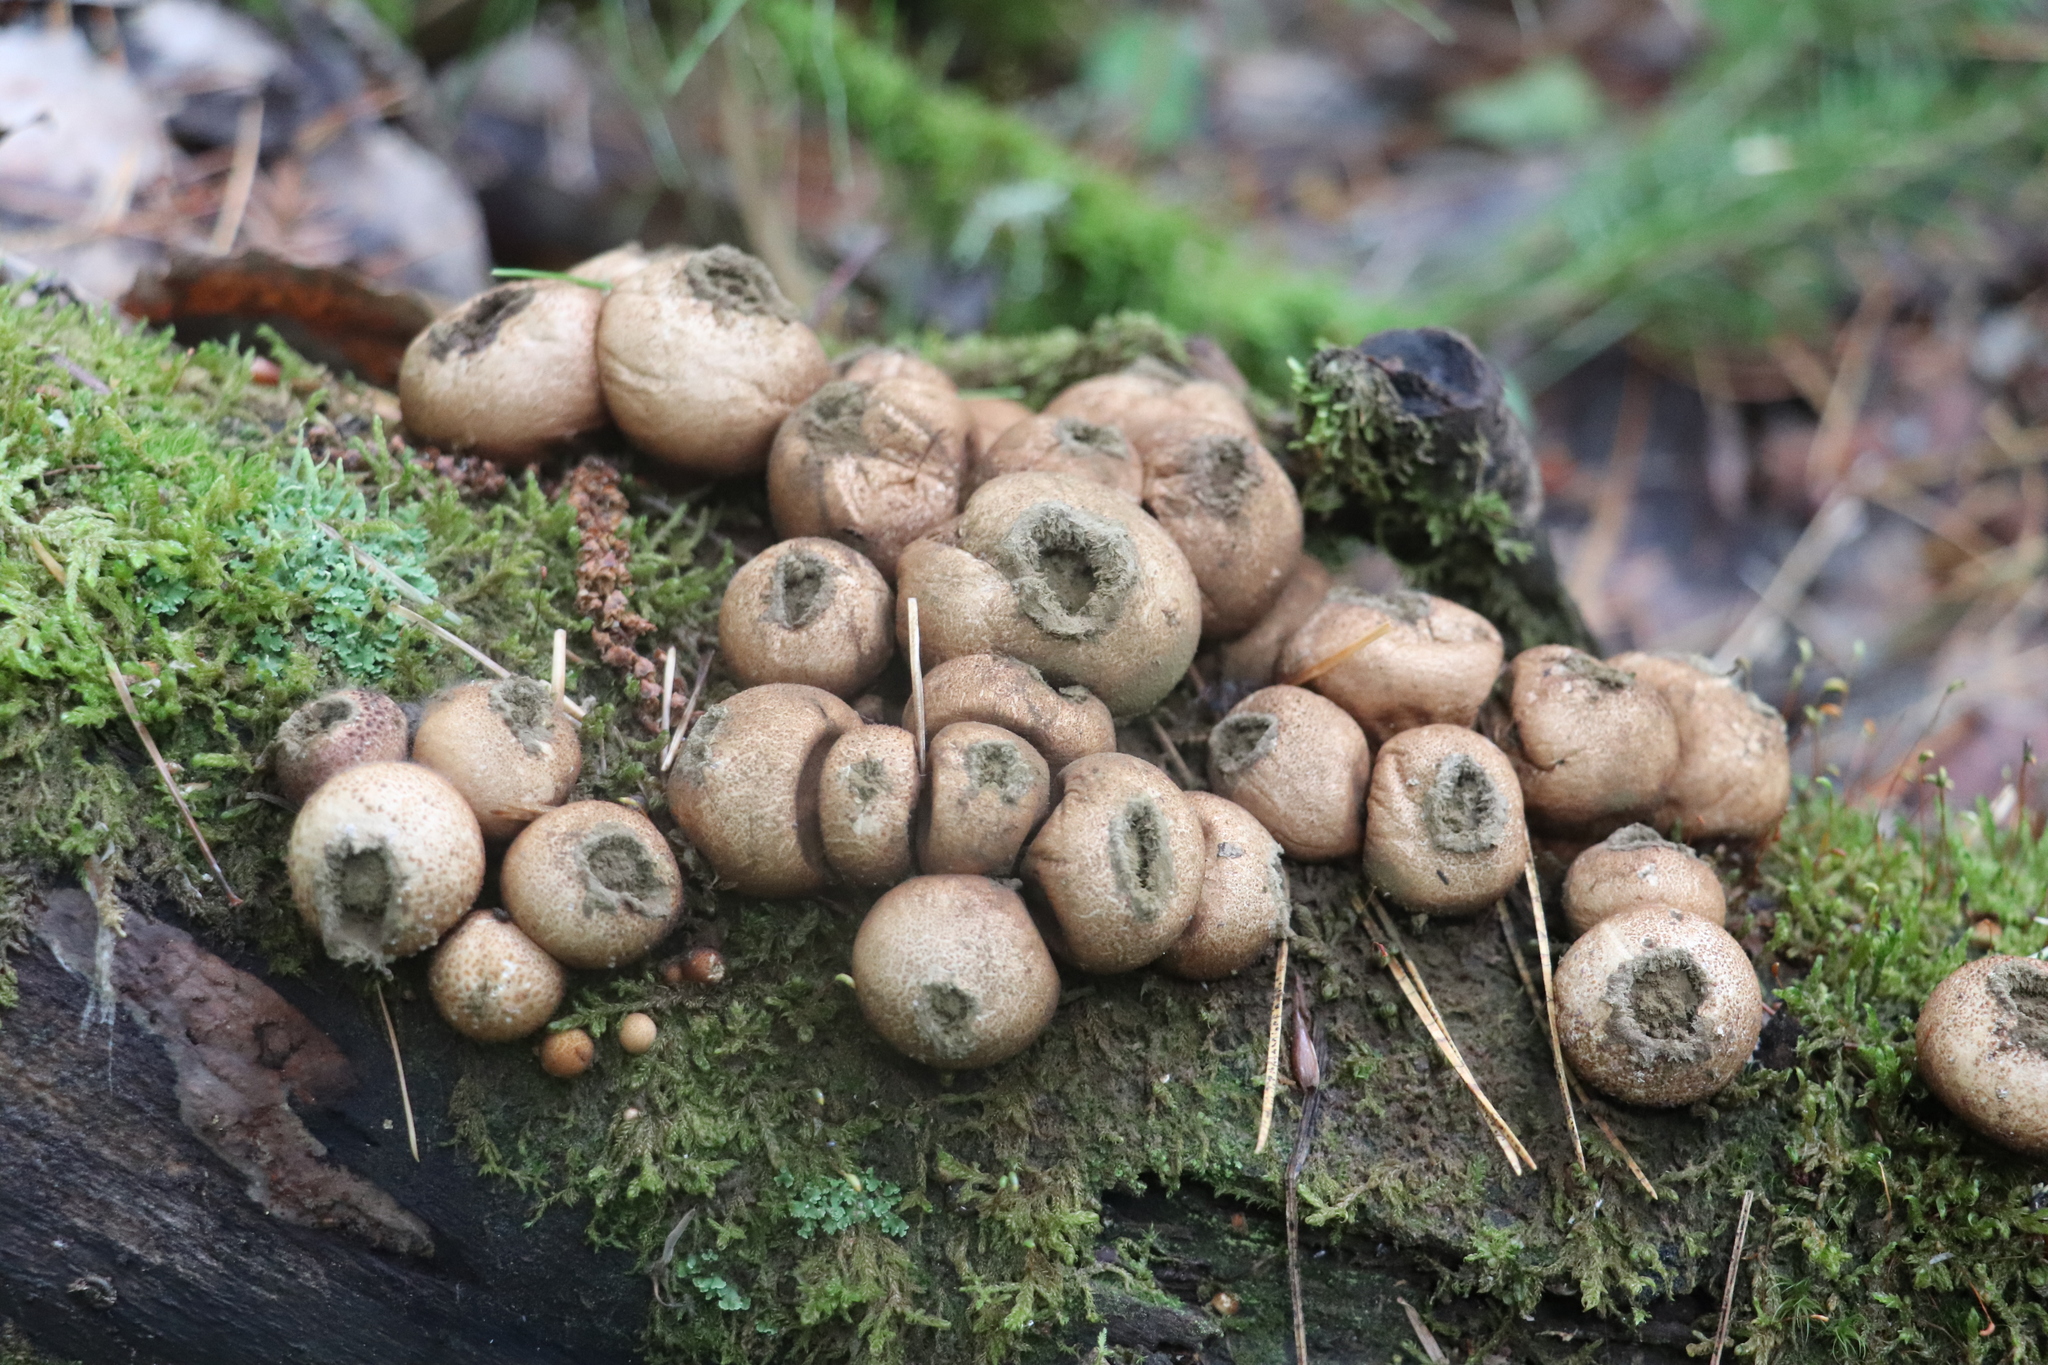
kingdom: Fungi
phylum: Basidiomycota
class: Agaricomycetes
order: Agaricales
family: Lycoperdaceae
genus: Apioperdon
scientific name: Apioperdon pyriforme
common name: Pear-shaped puffball
